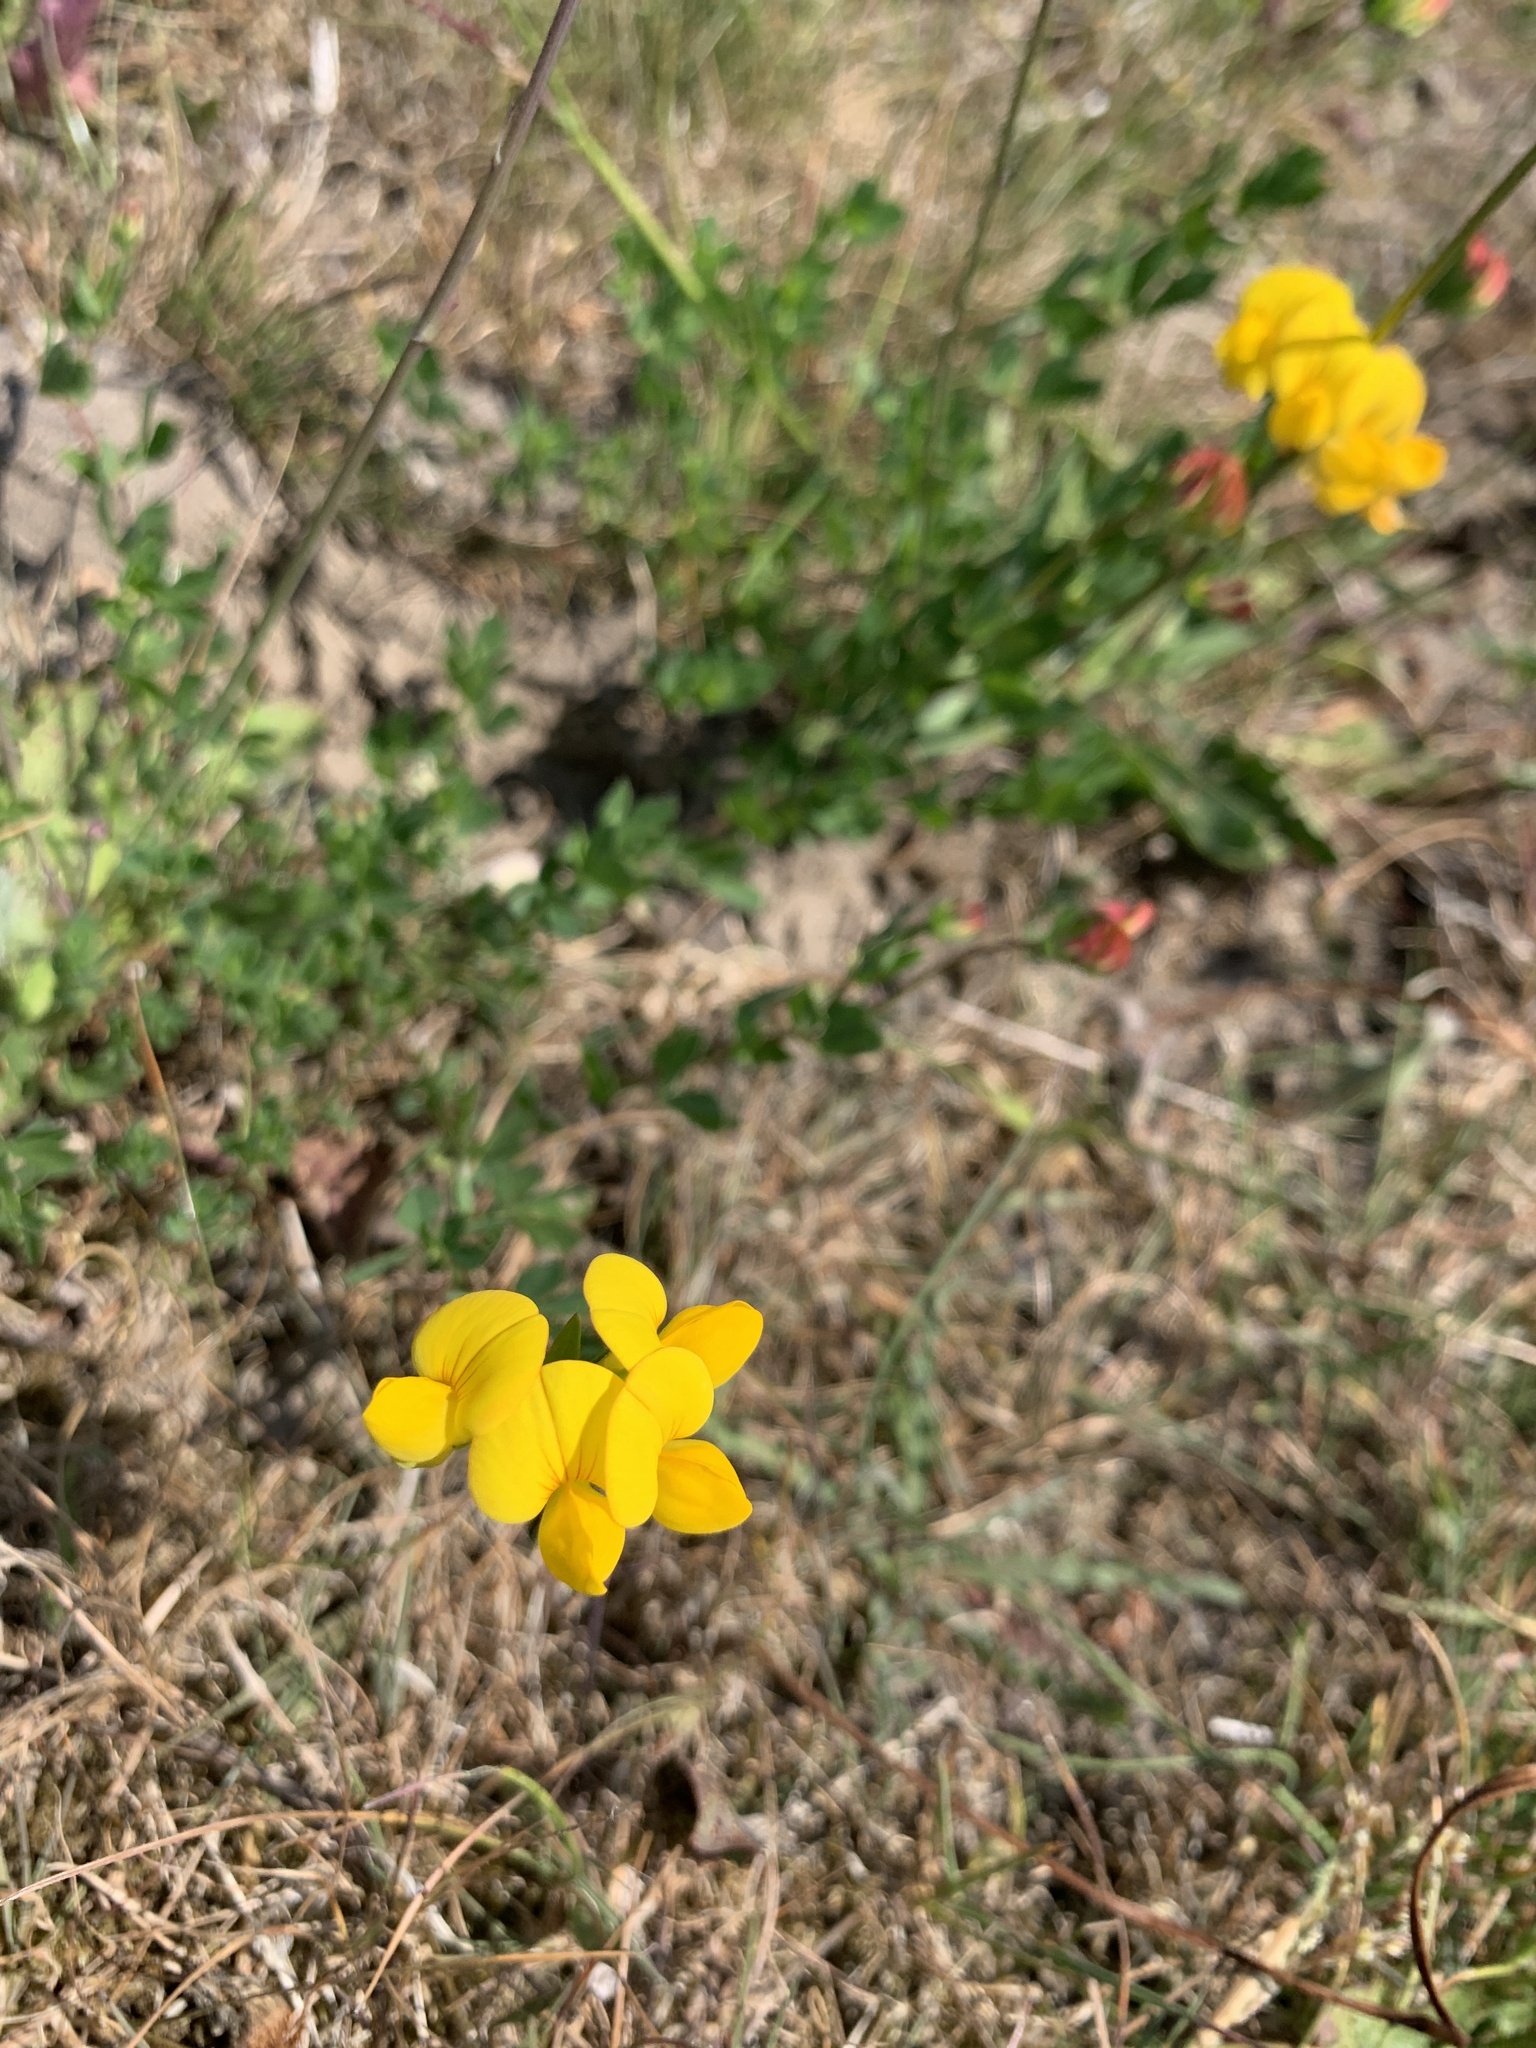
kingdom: Plantae
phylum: Tracheophyta
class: Magnoliopsida
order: Fabales
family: Fabaceae
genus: Lotus
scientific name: Lotus corniculatus
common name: Common bird's-foot-trefoil
